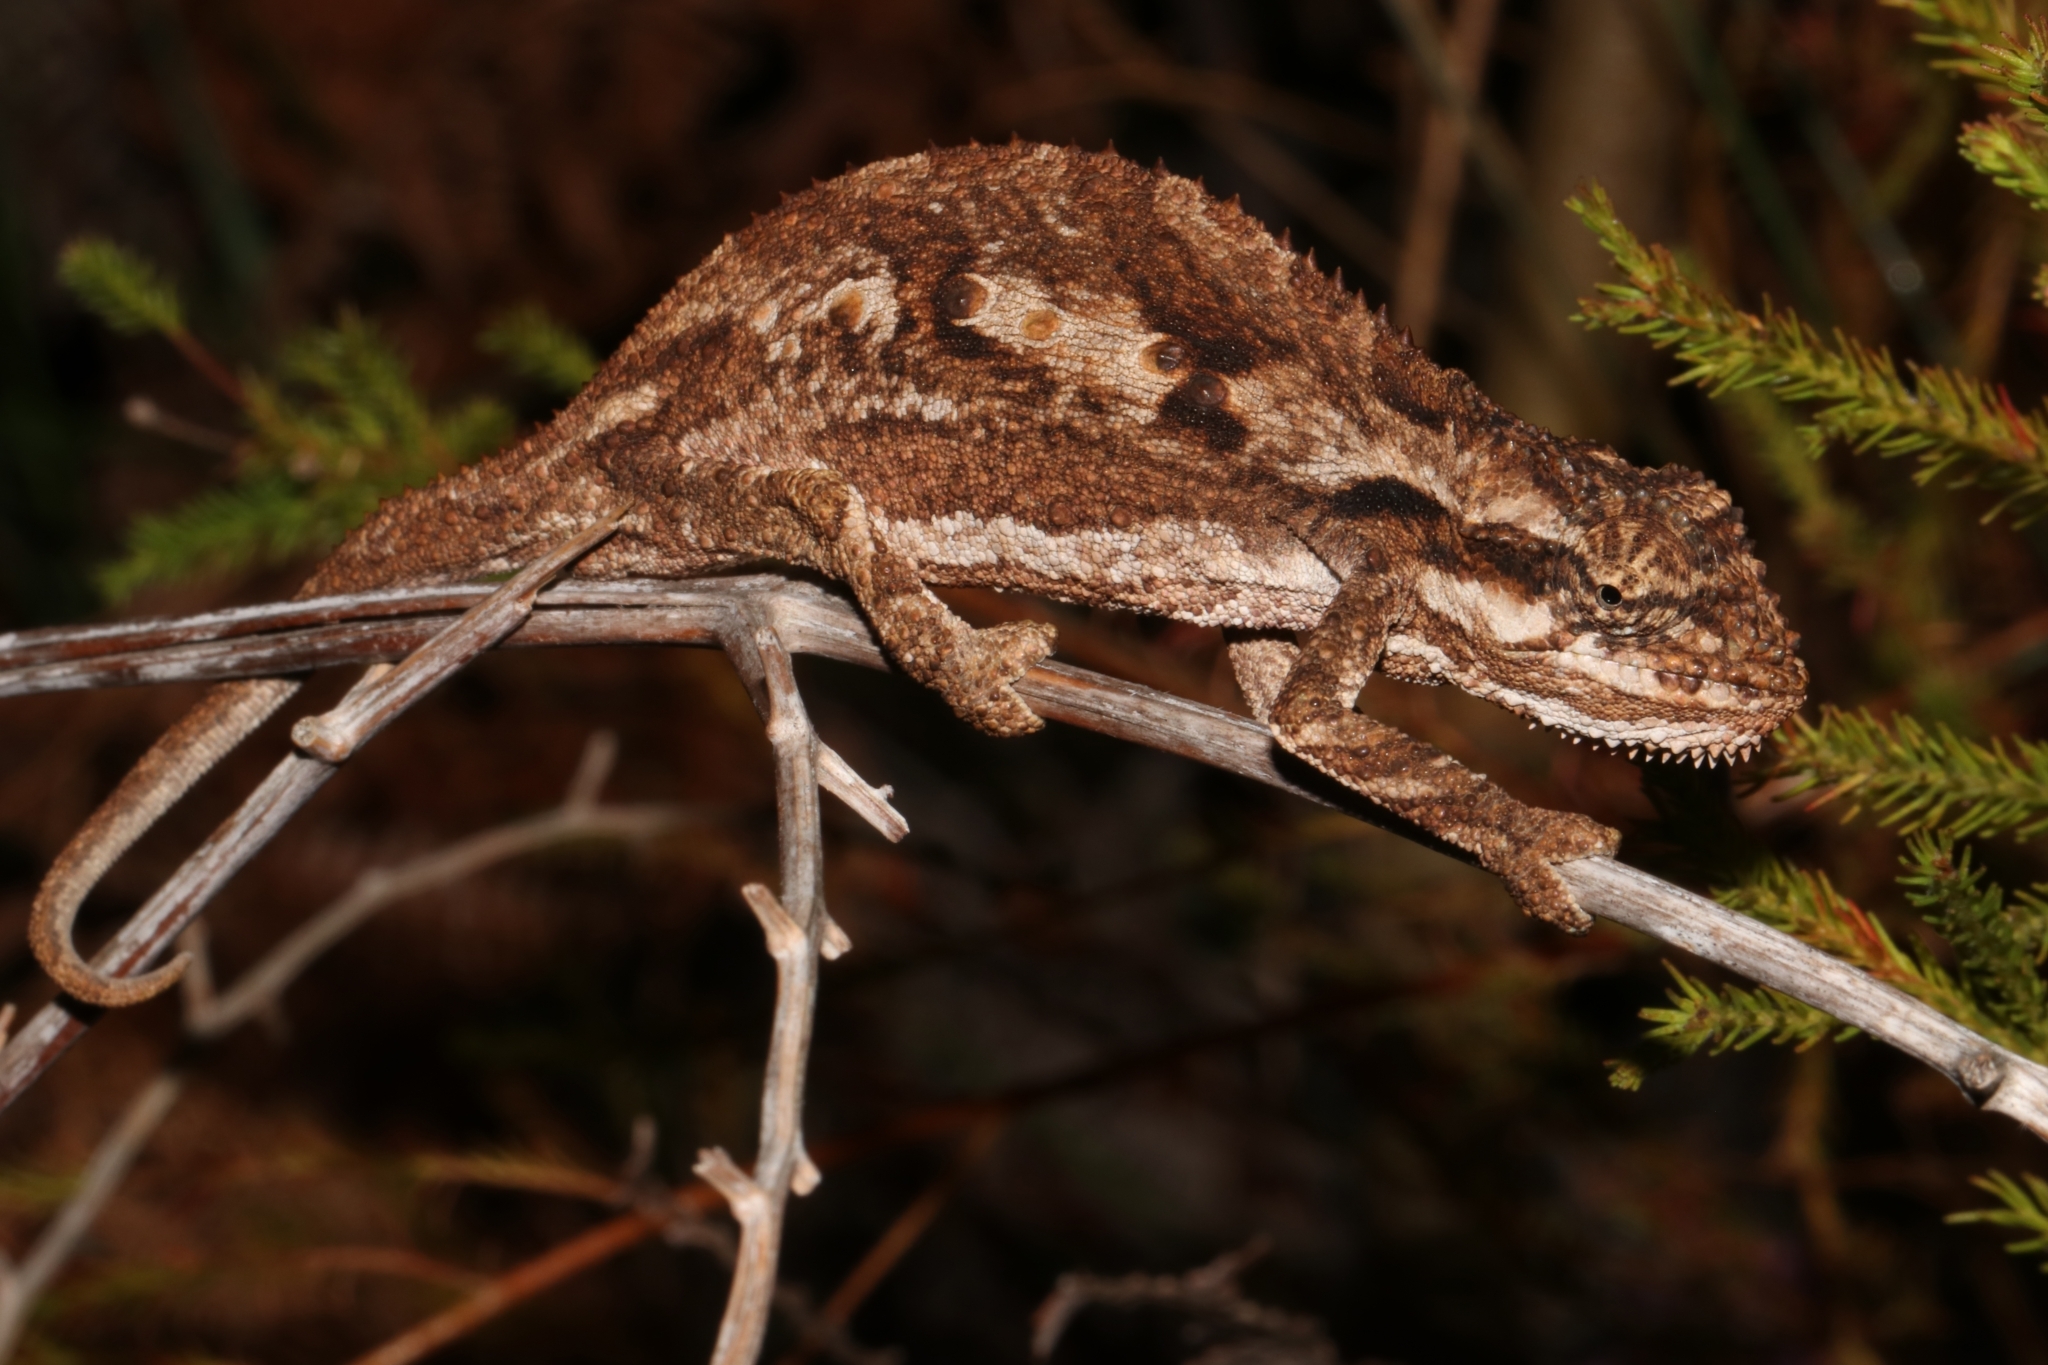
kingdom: Animalia
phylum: Chordata
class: Squamata
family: Chamaeleonidae
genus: Bradypodion
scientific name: Bradypodion gutturale
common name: Little karoo dwarf chameleon
